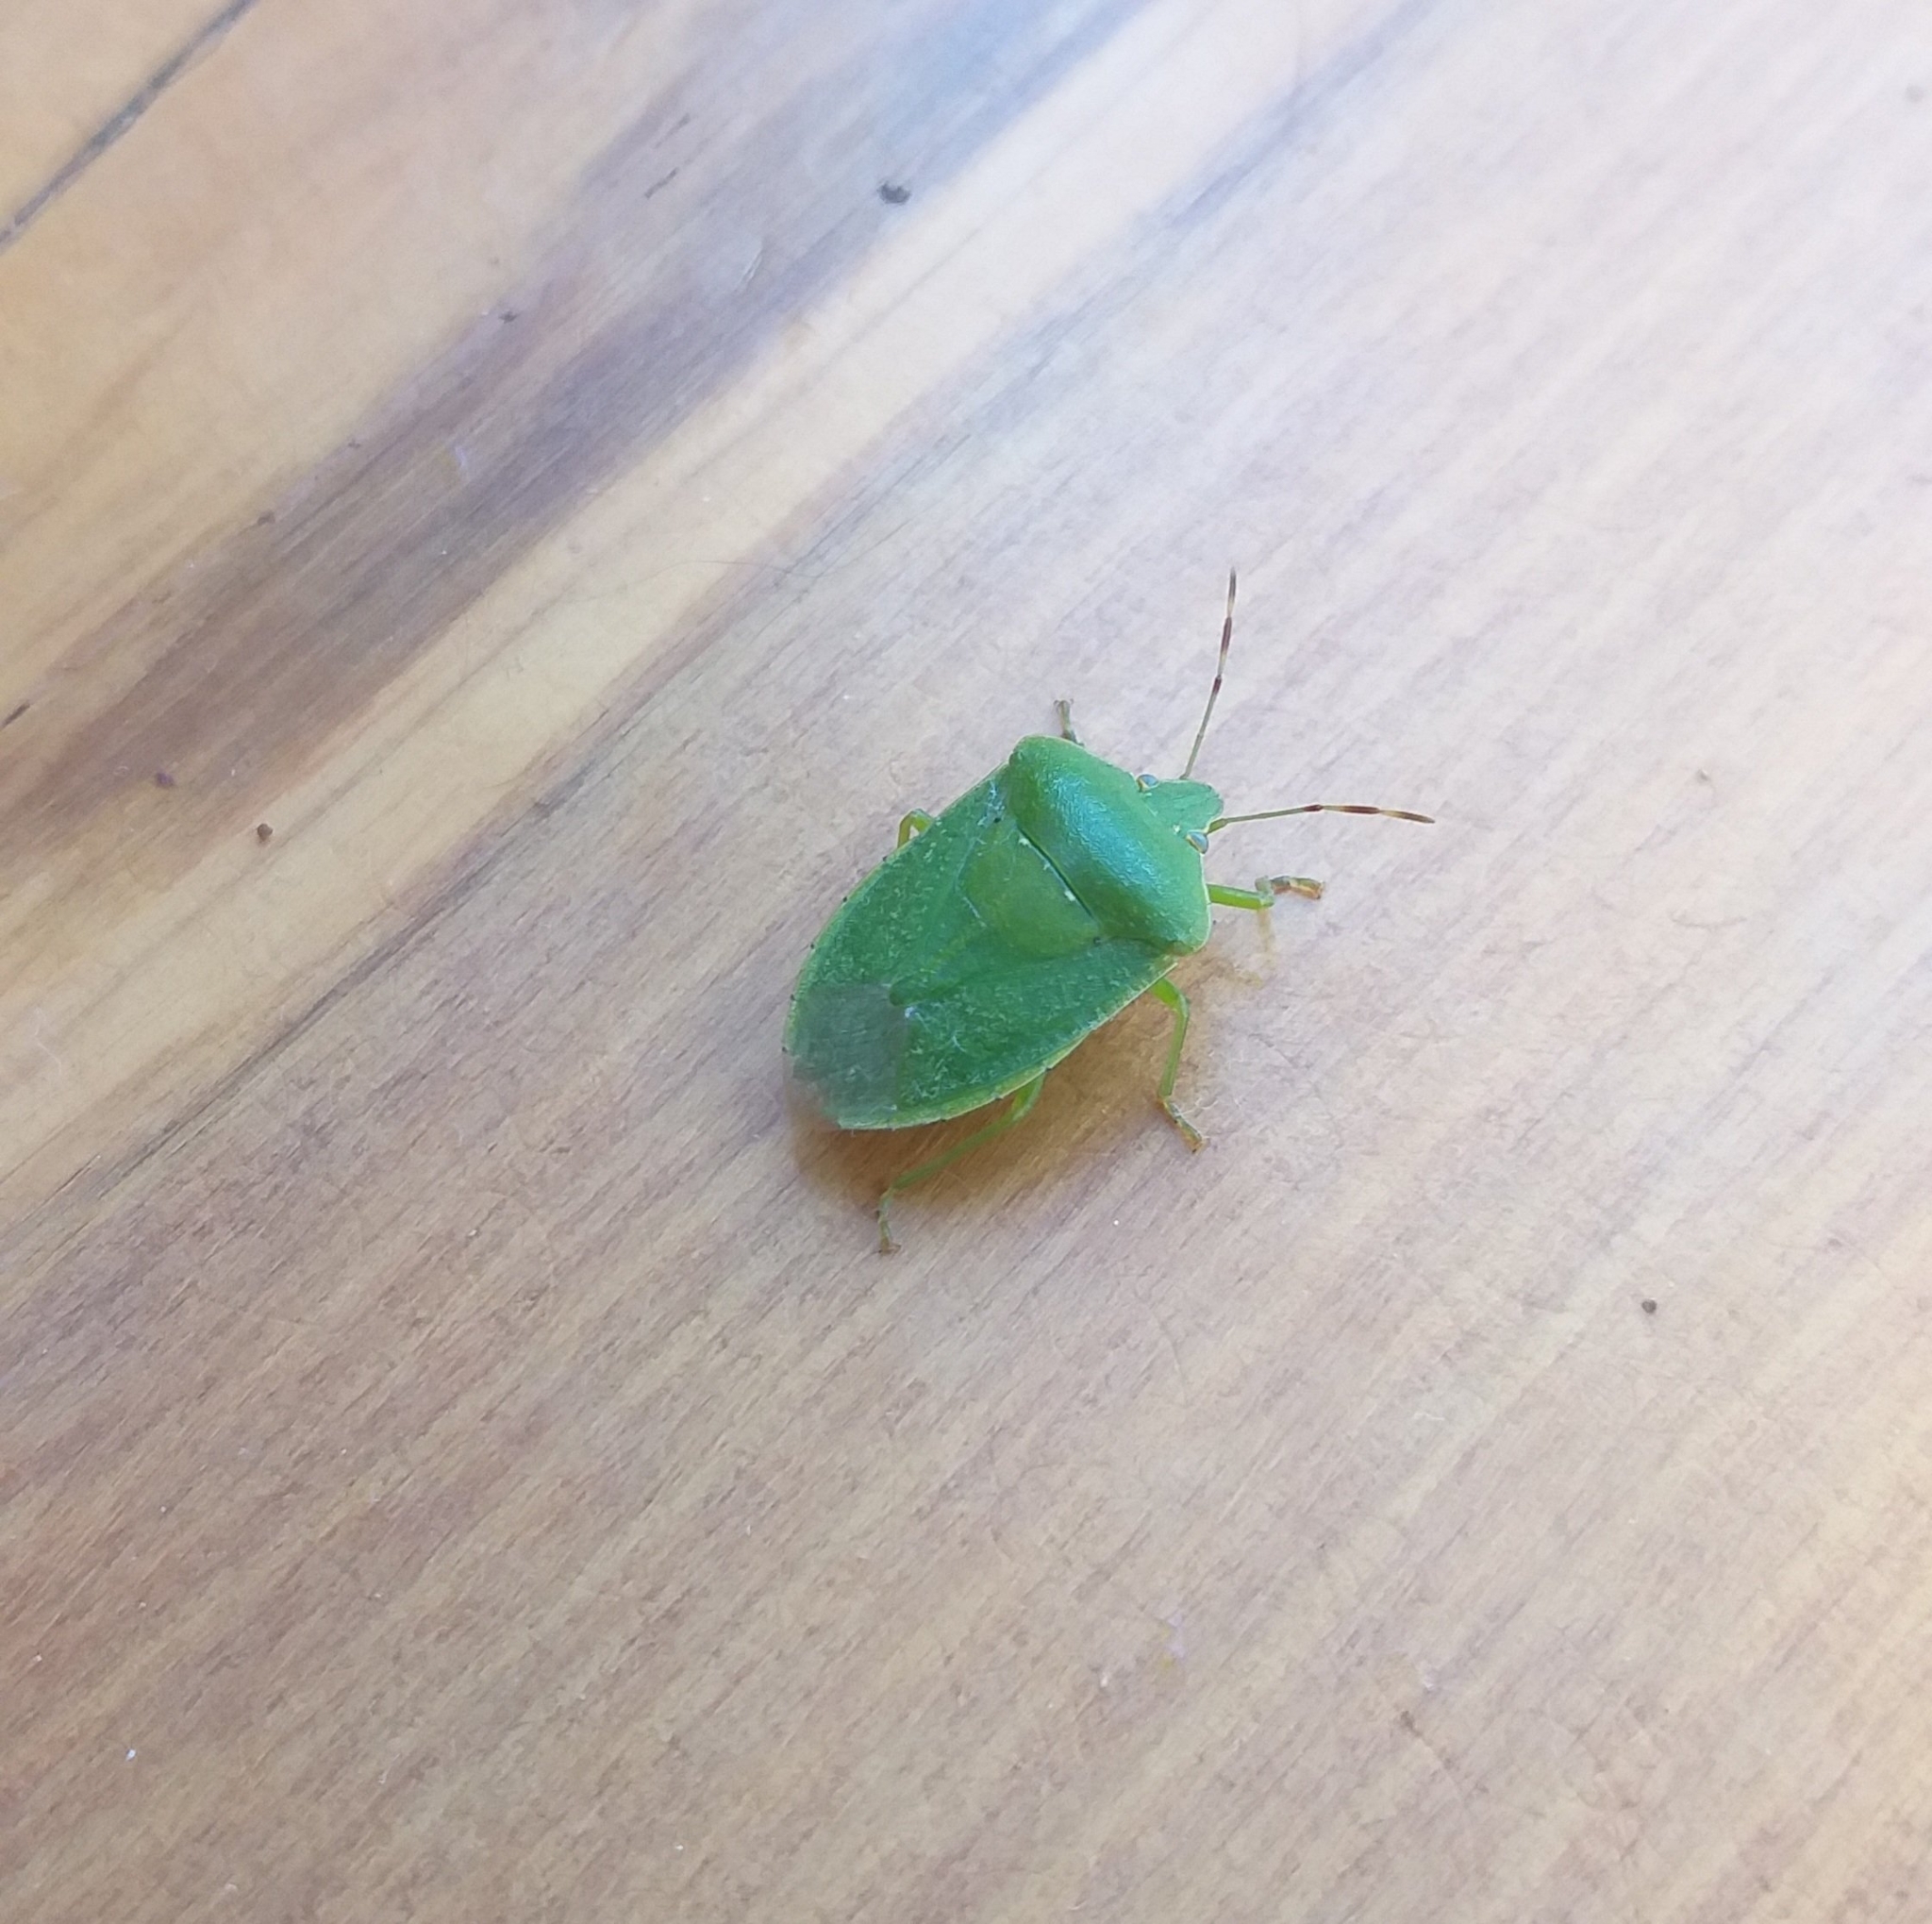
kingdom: Animalia
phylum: Arthropoda
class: Insecta
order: Hemiptera
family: Pentatomidae
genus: Nezara
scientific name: Nezara viridula
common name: Southern green stink bug
